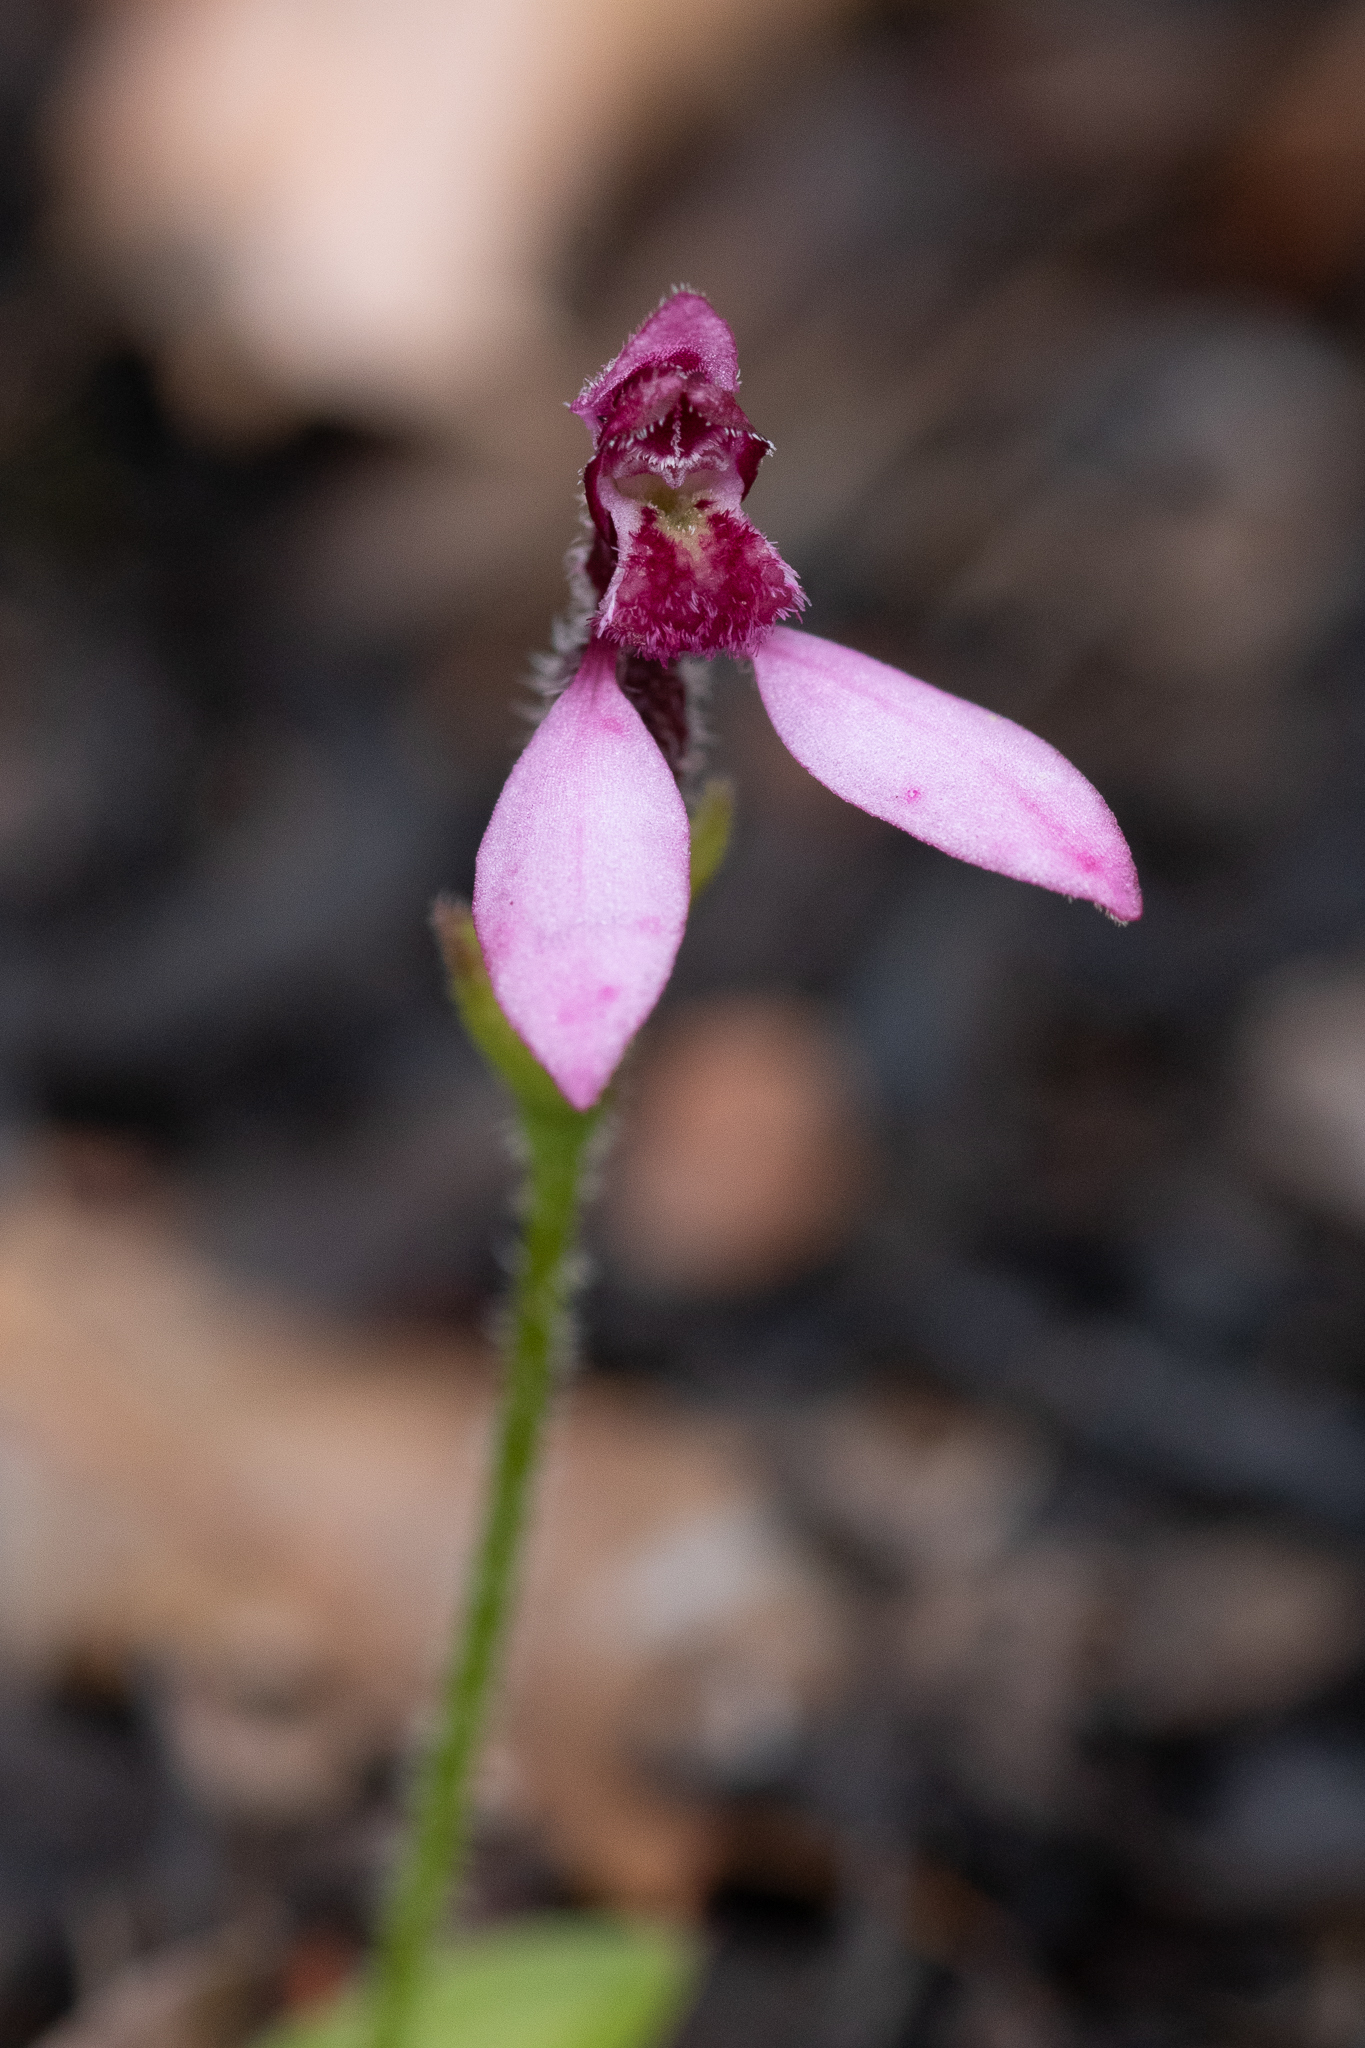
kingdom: Plantae
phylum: Tracheophyta
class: Liliopsida
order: Asparagales
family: Orchidaceae
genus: Eriochilus
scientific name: Eriochilus scaber
